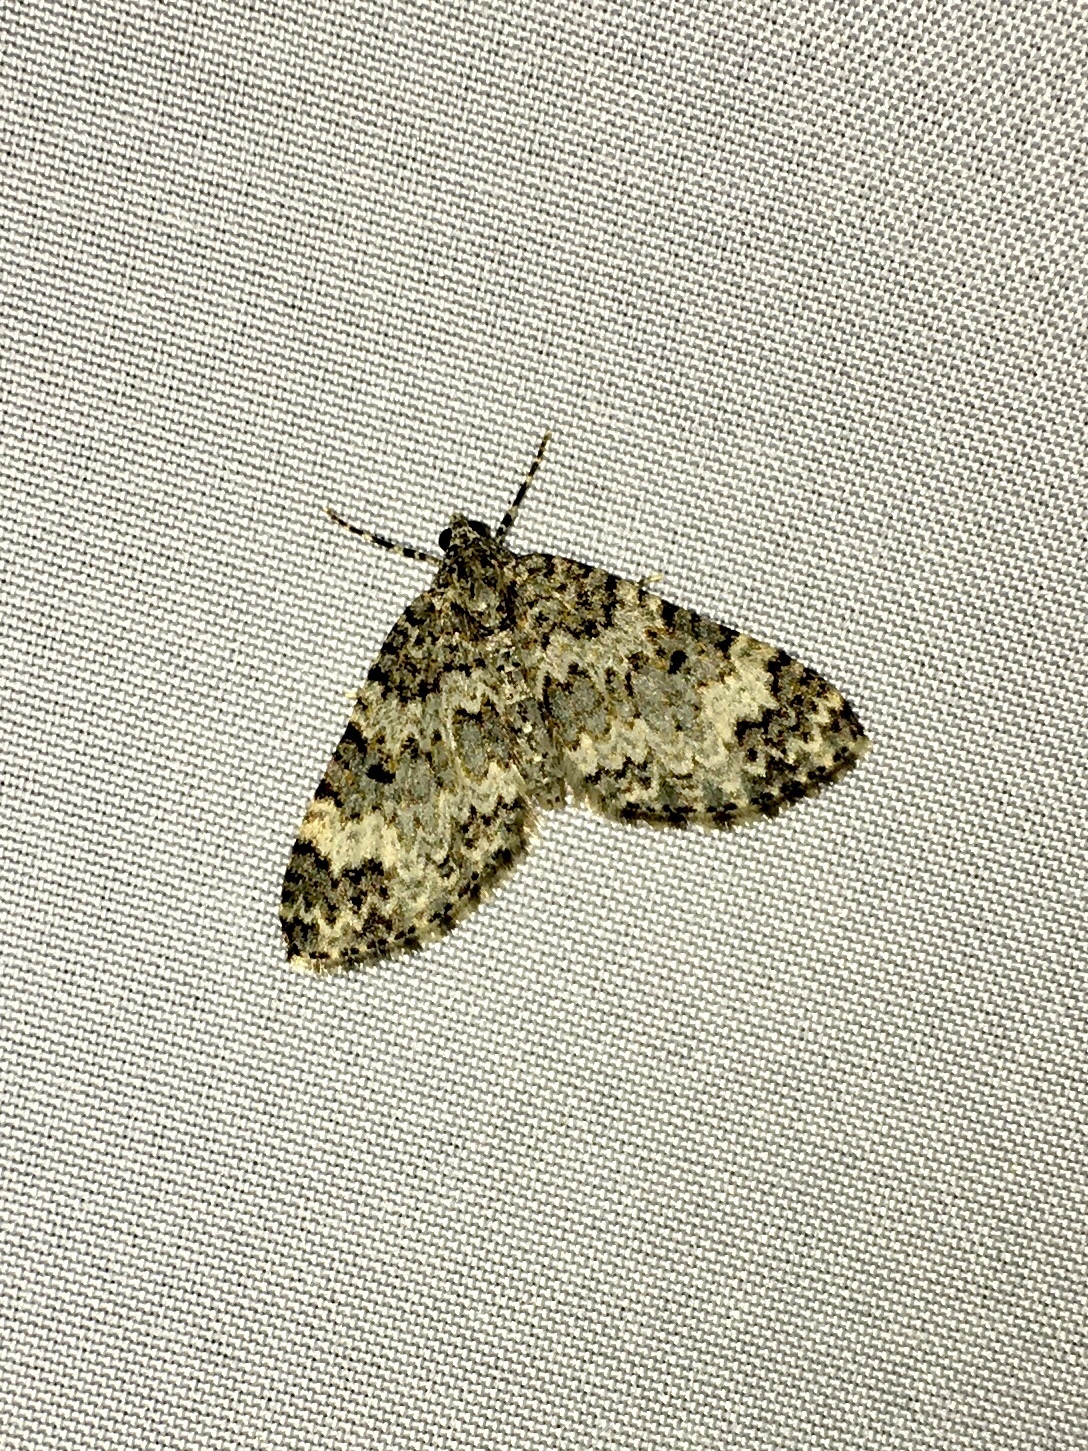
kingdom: Animalia
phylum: Arthropoda
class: Insecta
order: Lepidoptera
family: Geometridae
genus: Spargania
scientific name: Spargania magnoliata
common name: Double-banded carpet
